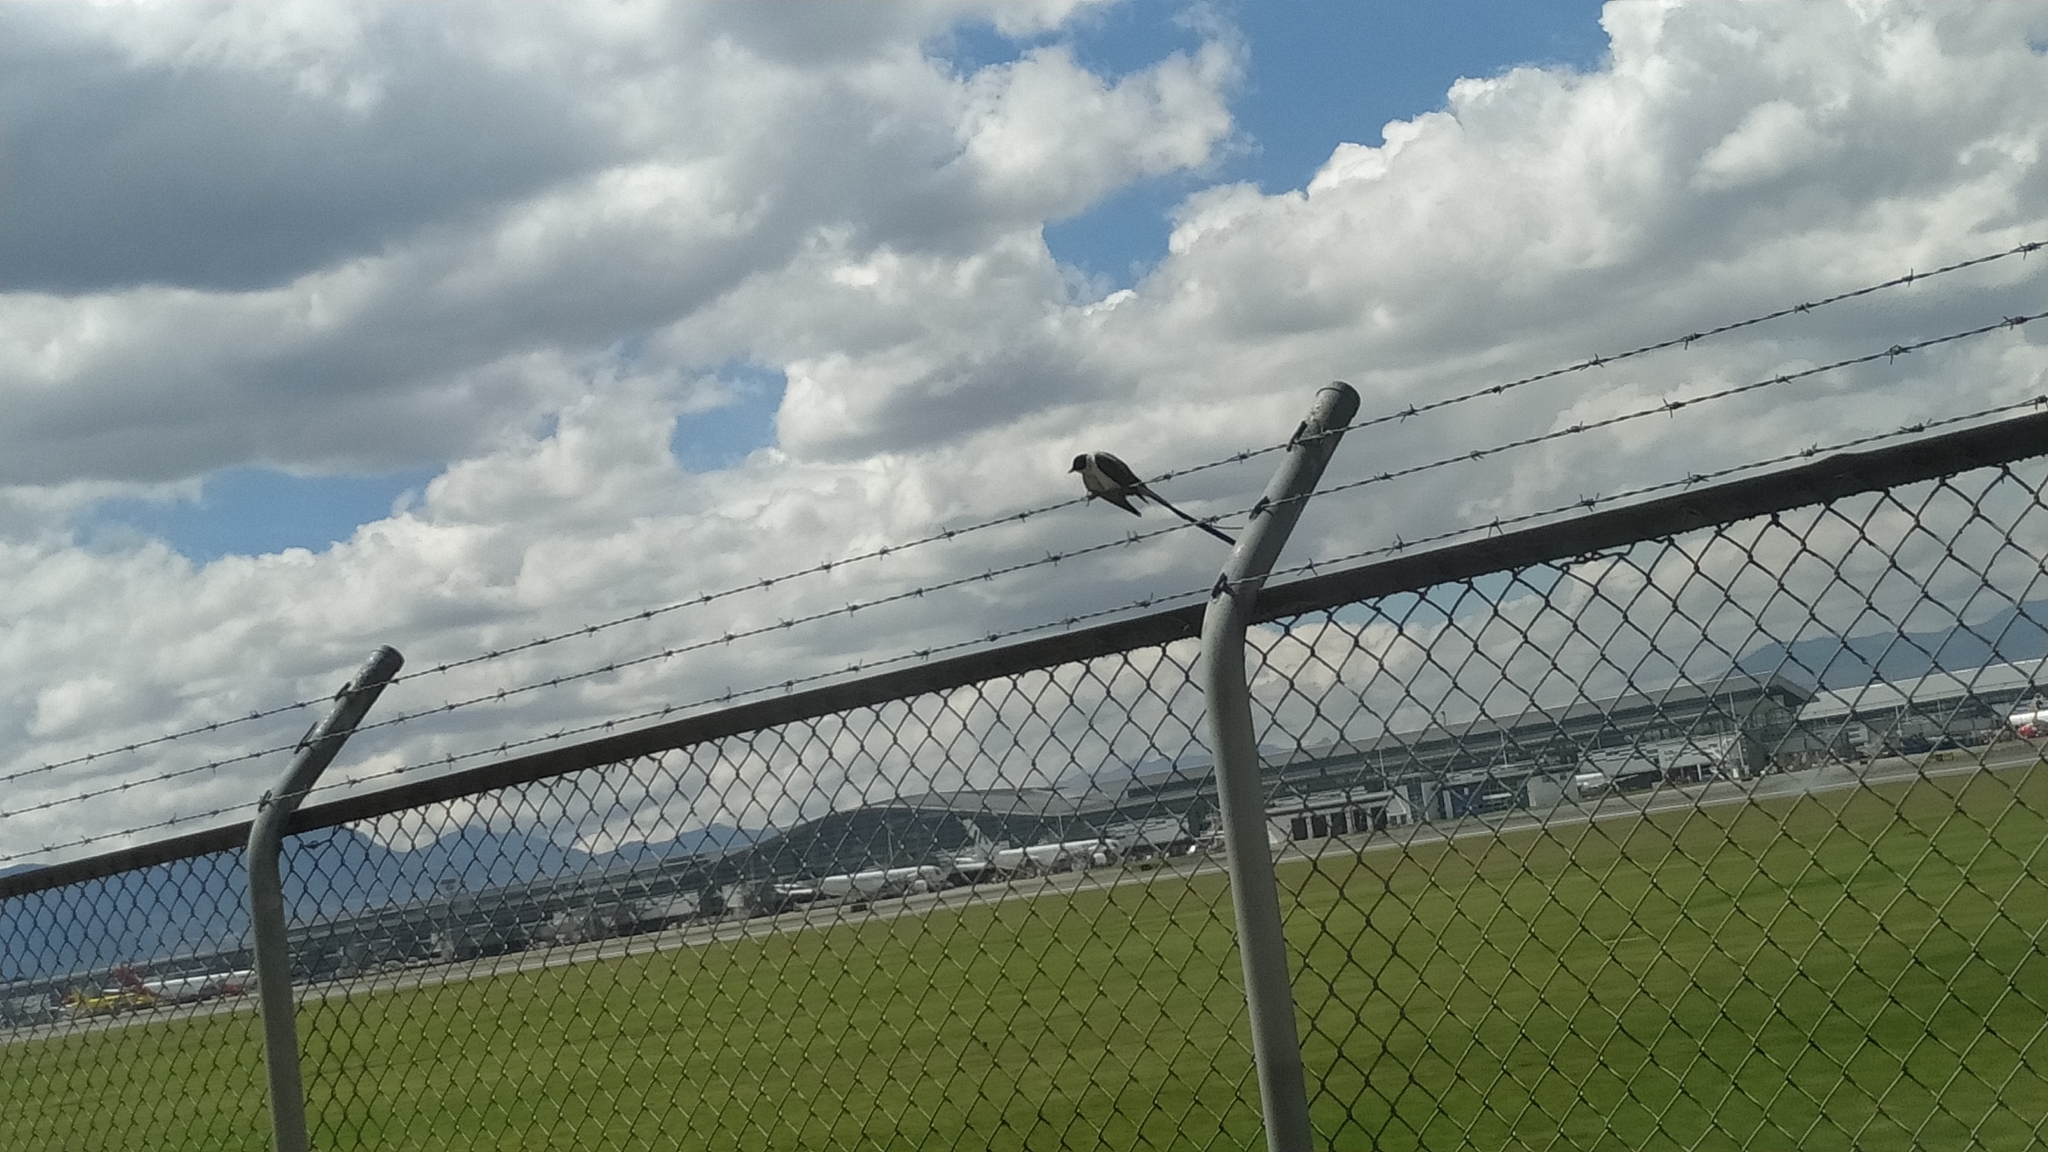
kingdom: Animalia
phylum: Chordata
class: Aves
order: Passeriformes
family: Tyrannidae
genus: Tyrannus
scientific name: Tyrannus savana
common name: Fork-tailed flycatcher
